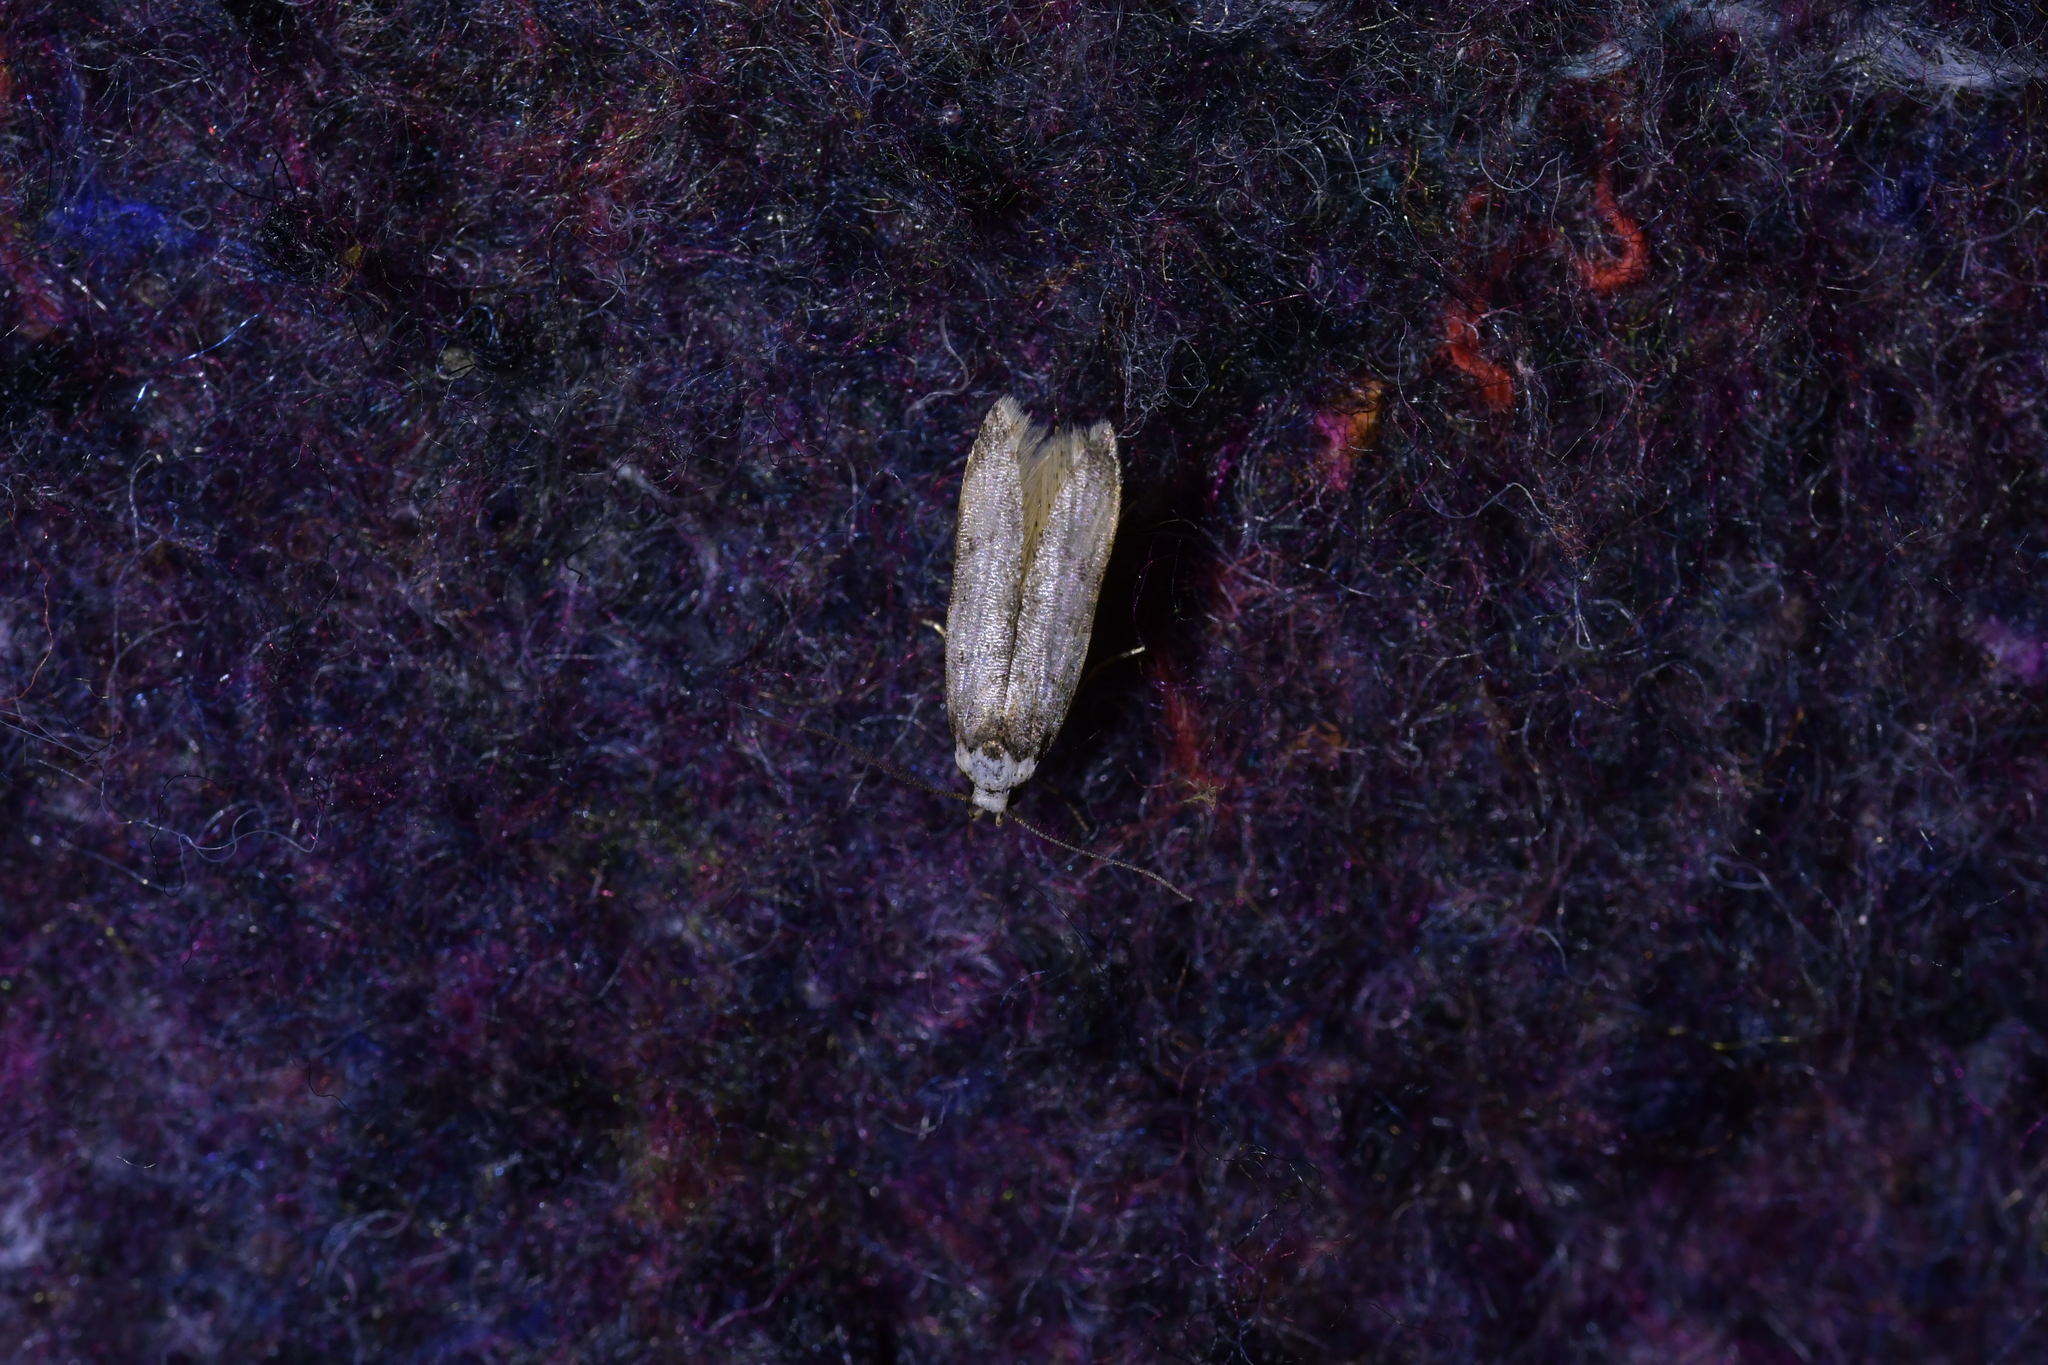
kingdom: Animalia
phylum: Arthropoda
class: Insecta
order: Lepidoptera
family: Oecophoridae
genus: Endrosis
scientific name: Endrosis sarcitrella
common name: White-shouldered house moth
